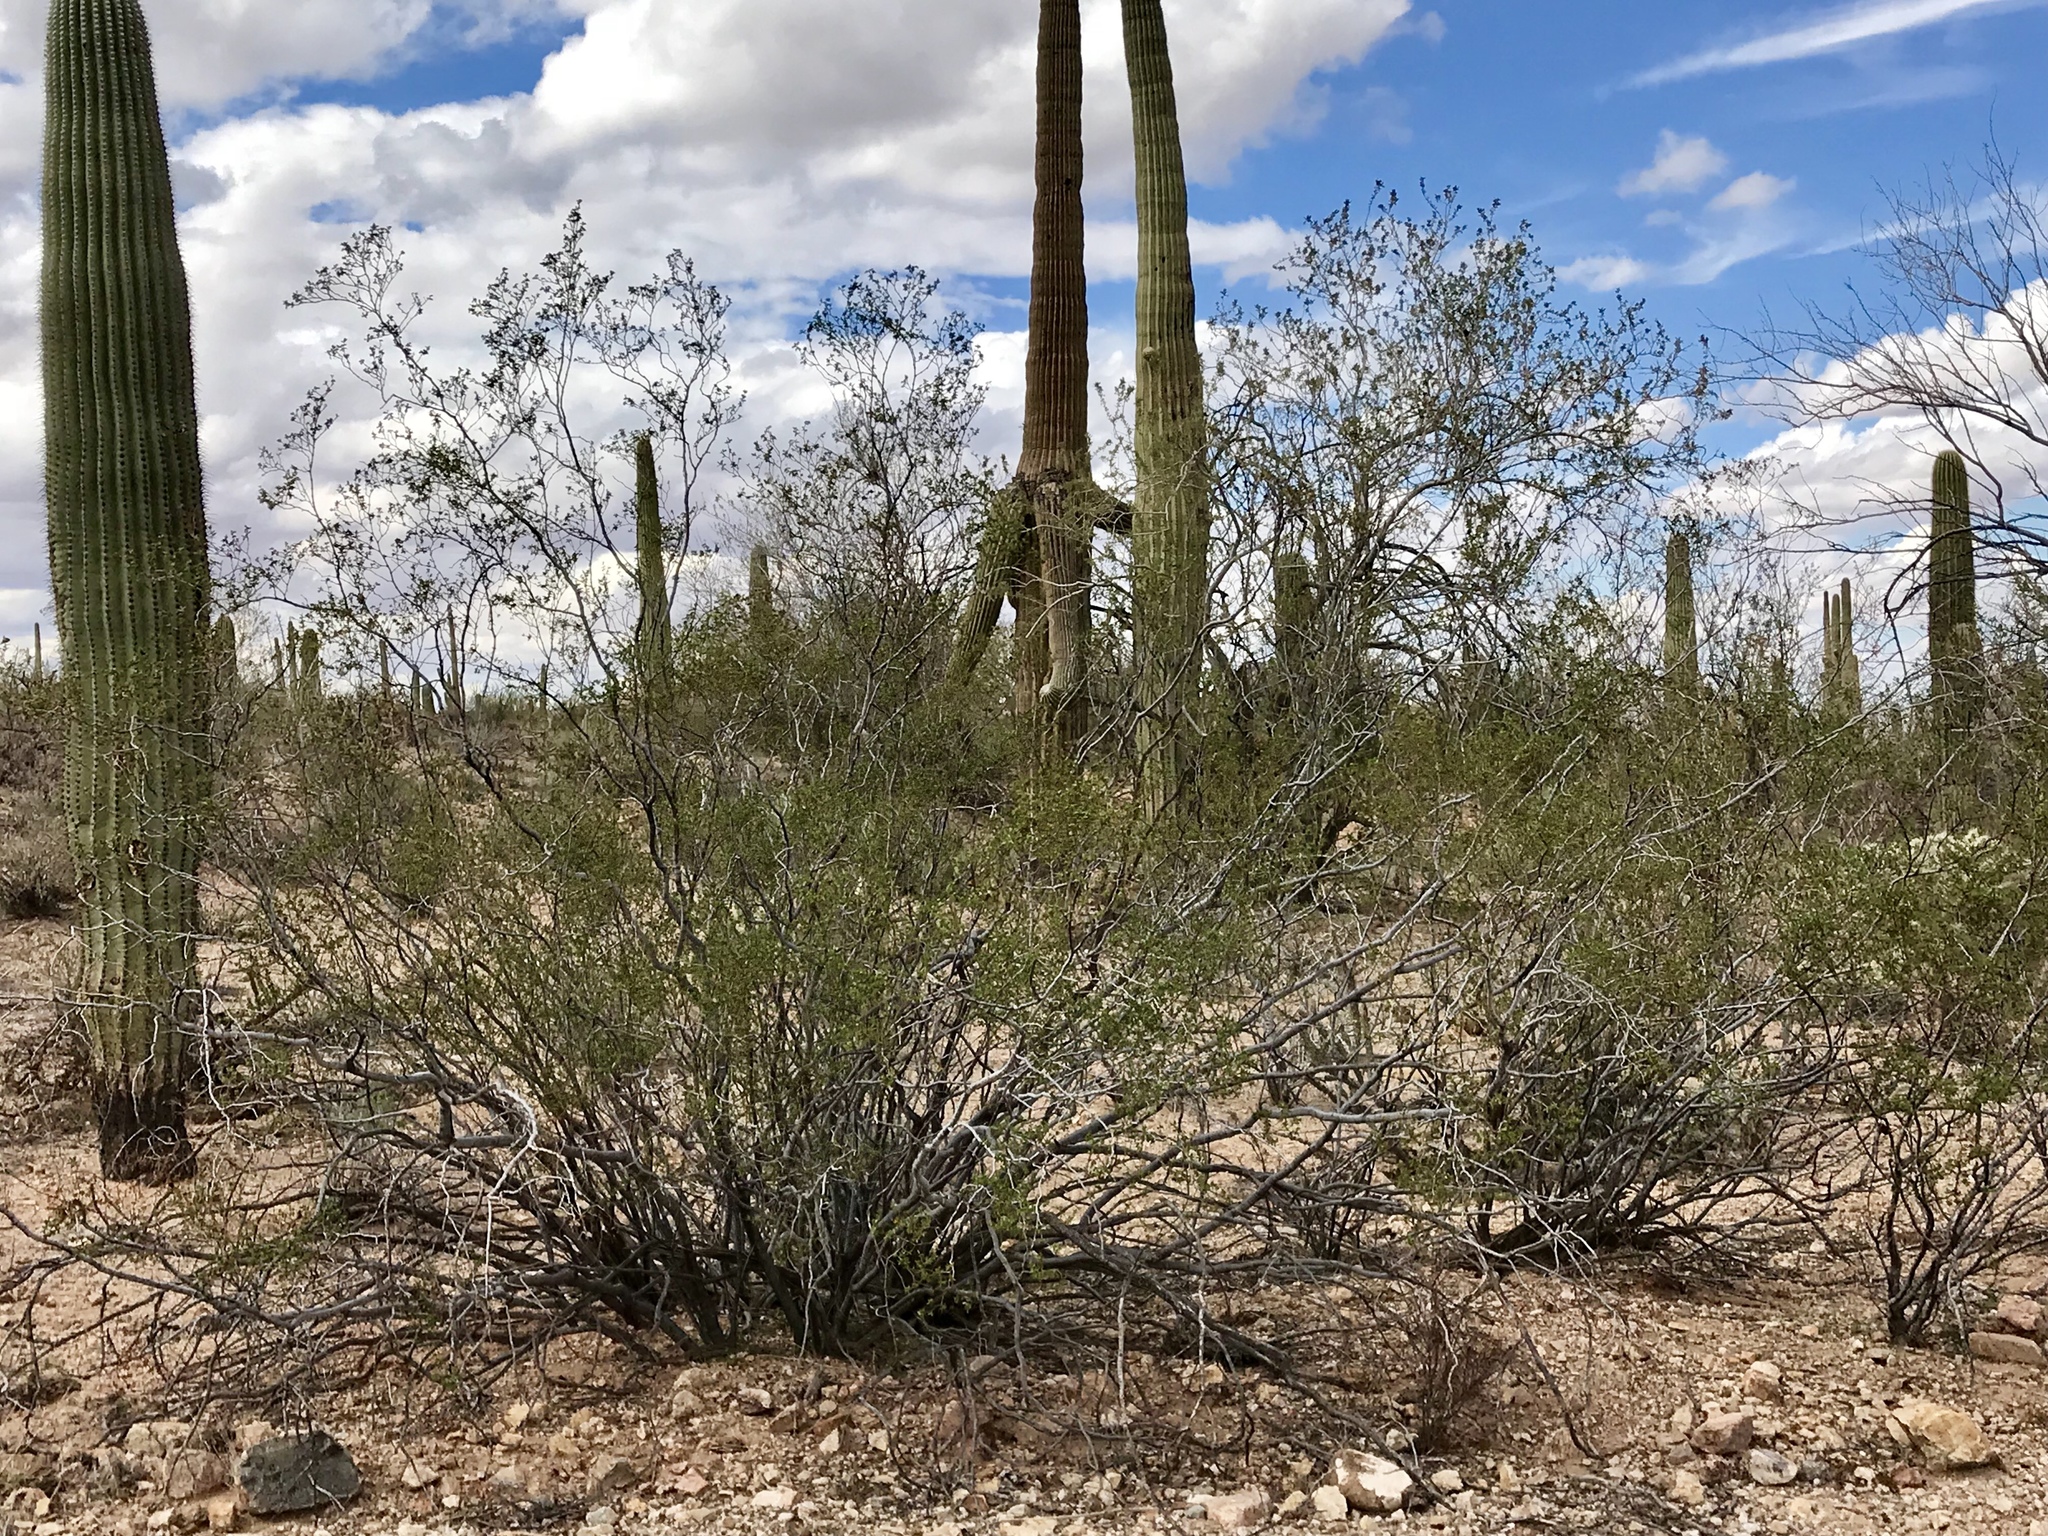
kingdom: Plantae
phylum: Tracheophyta
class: Magnoliopsida
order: Zygophyllales
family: Zygophyllaceae
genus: Larrea
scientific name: Larrea tridentata
